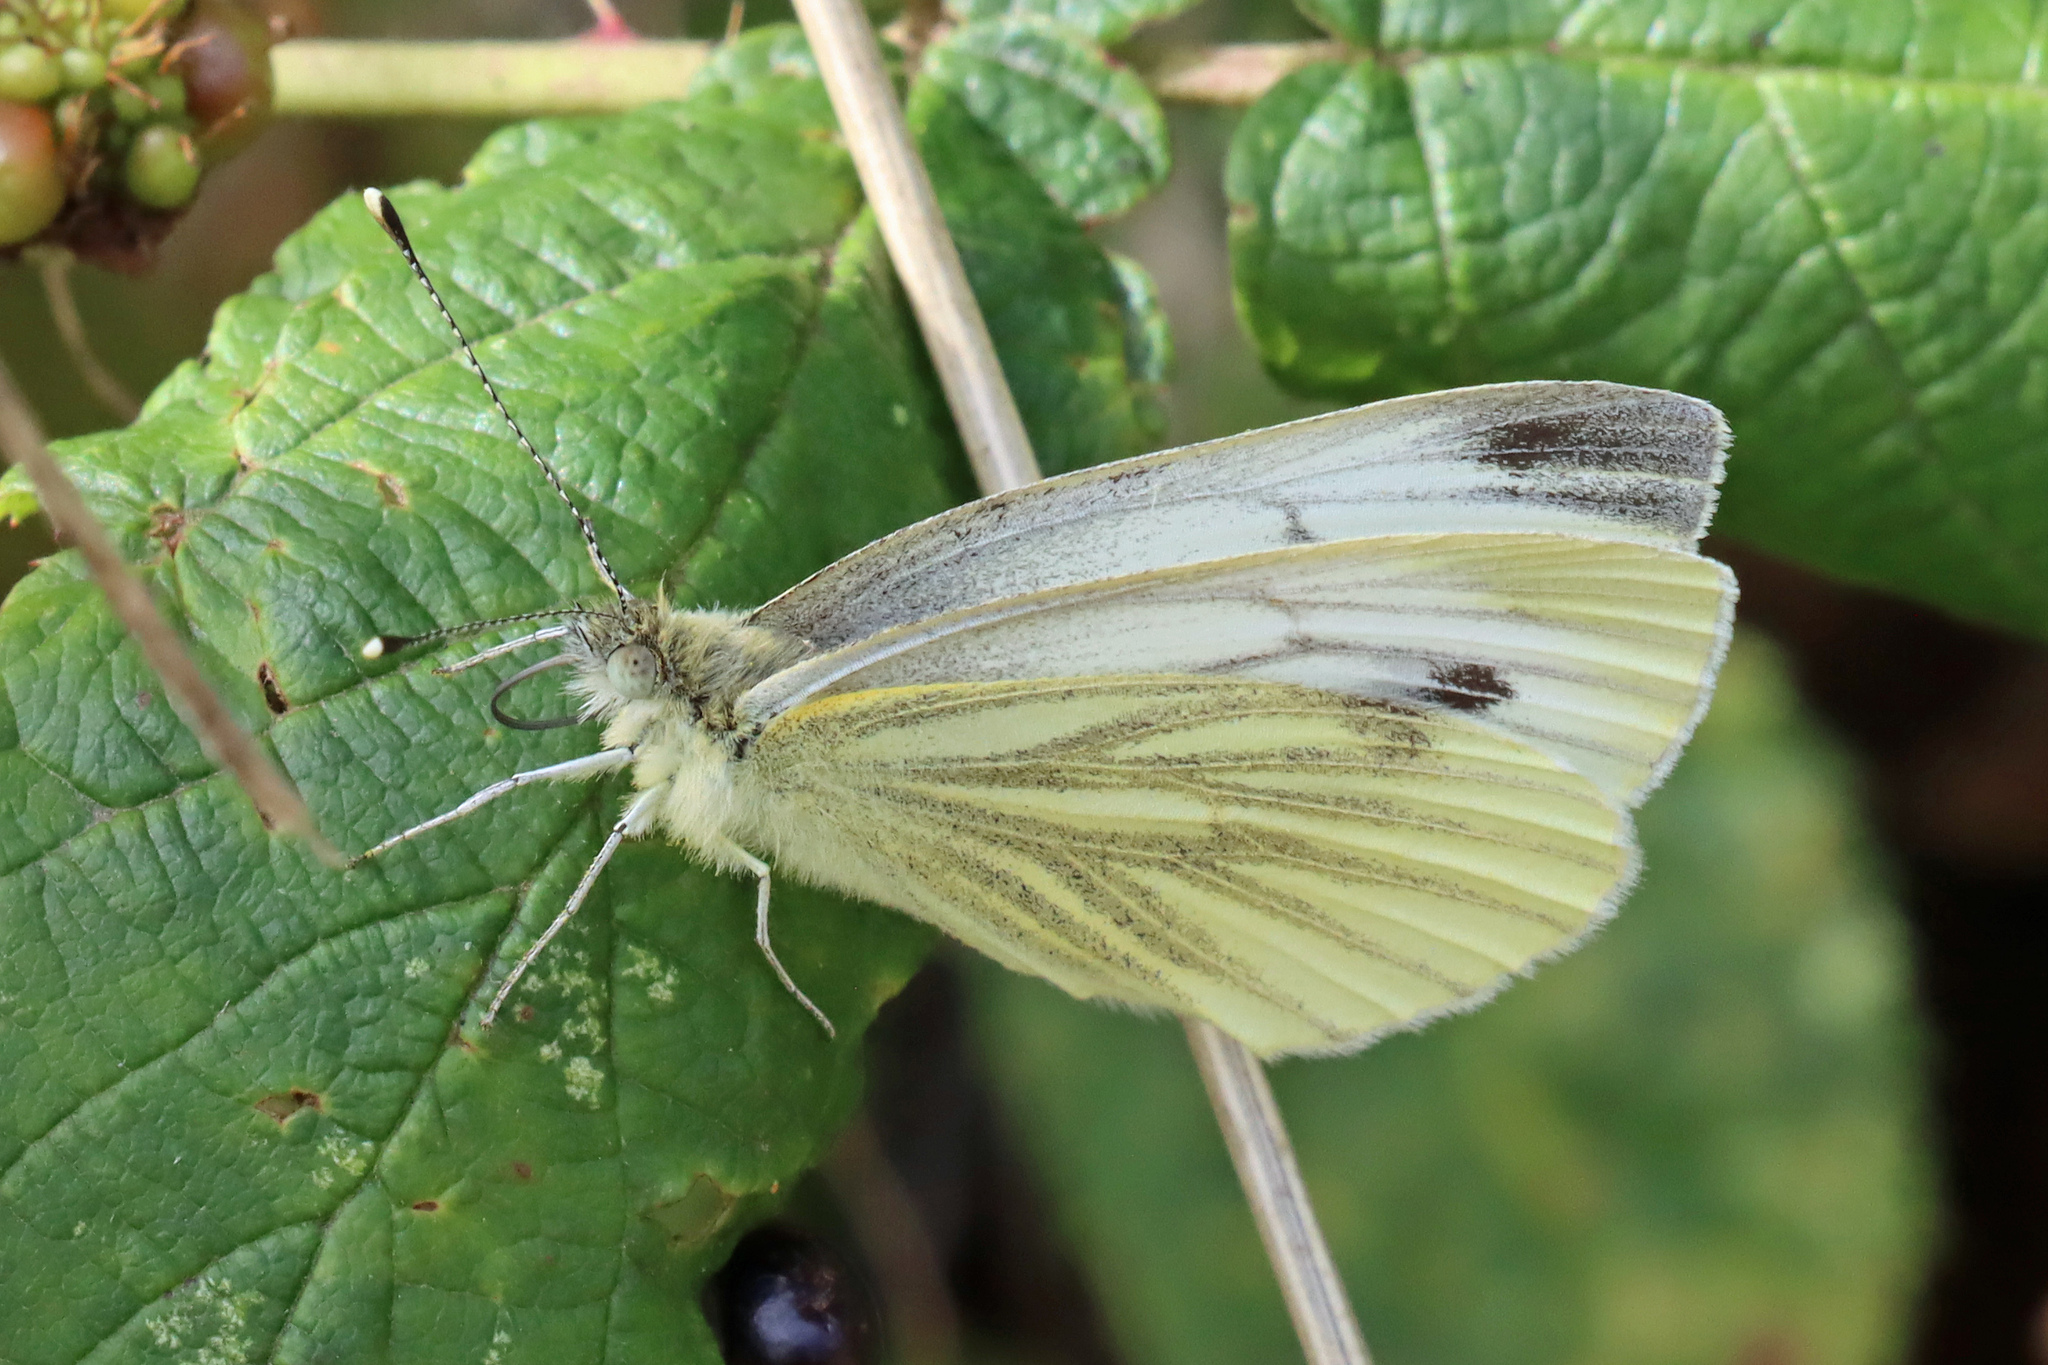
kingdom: Animalia
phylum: Arthropoda
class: Insecta
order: Lepidoptera
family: Pieridae
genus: Pieris
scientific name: Pieris napi
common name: Green-veined white
